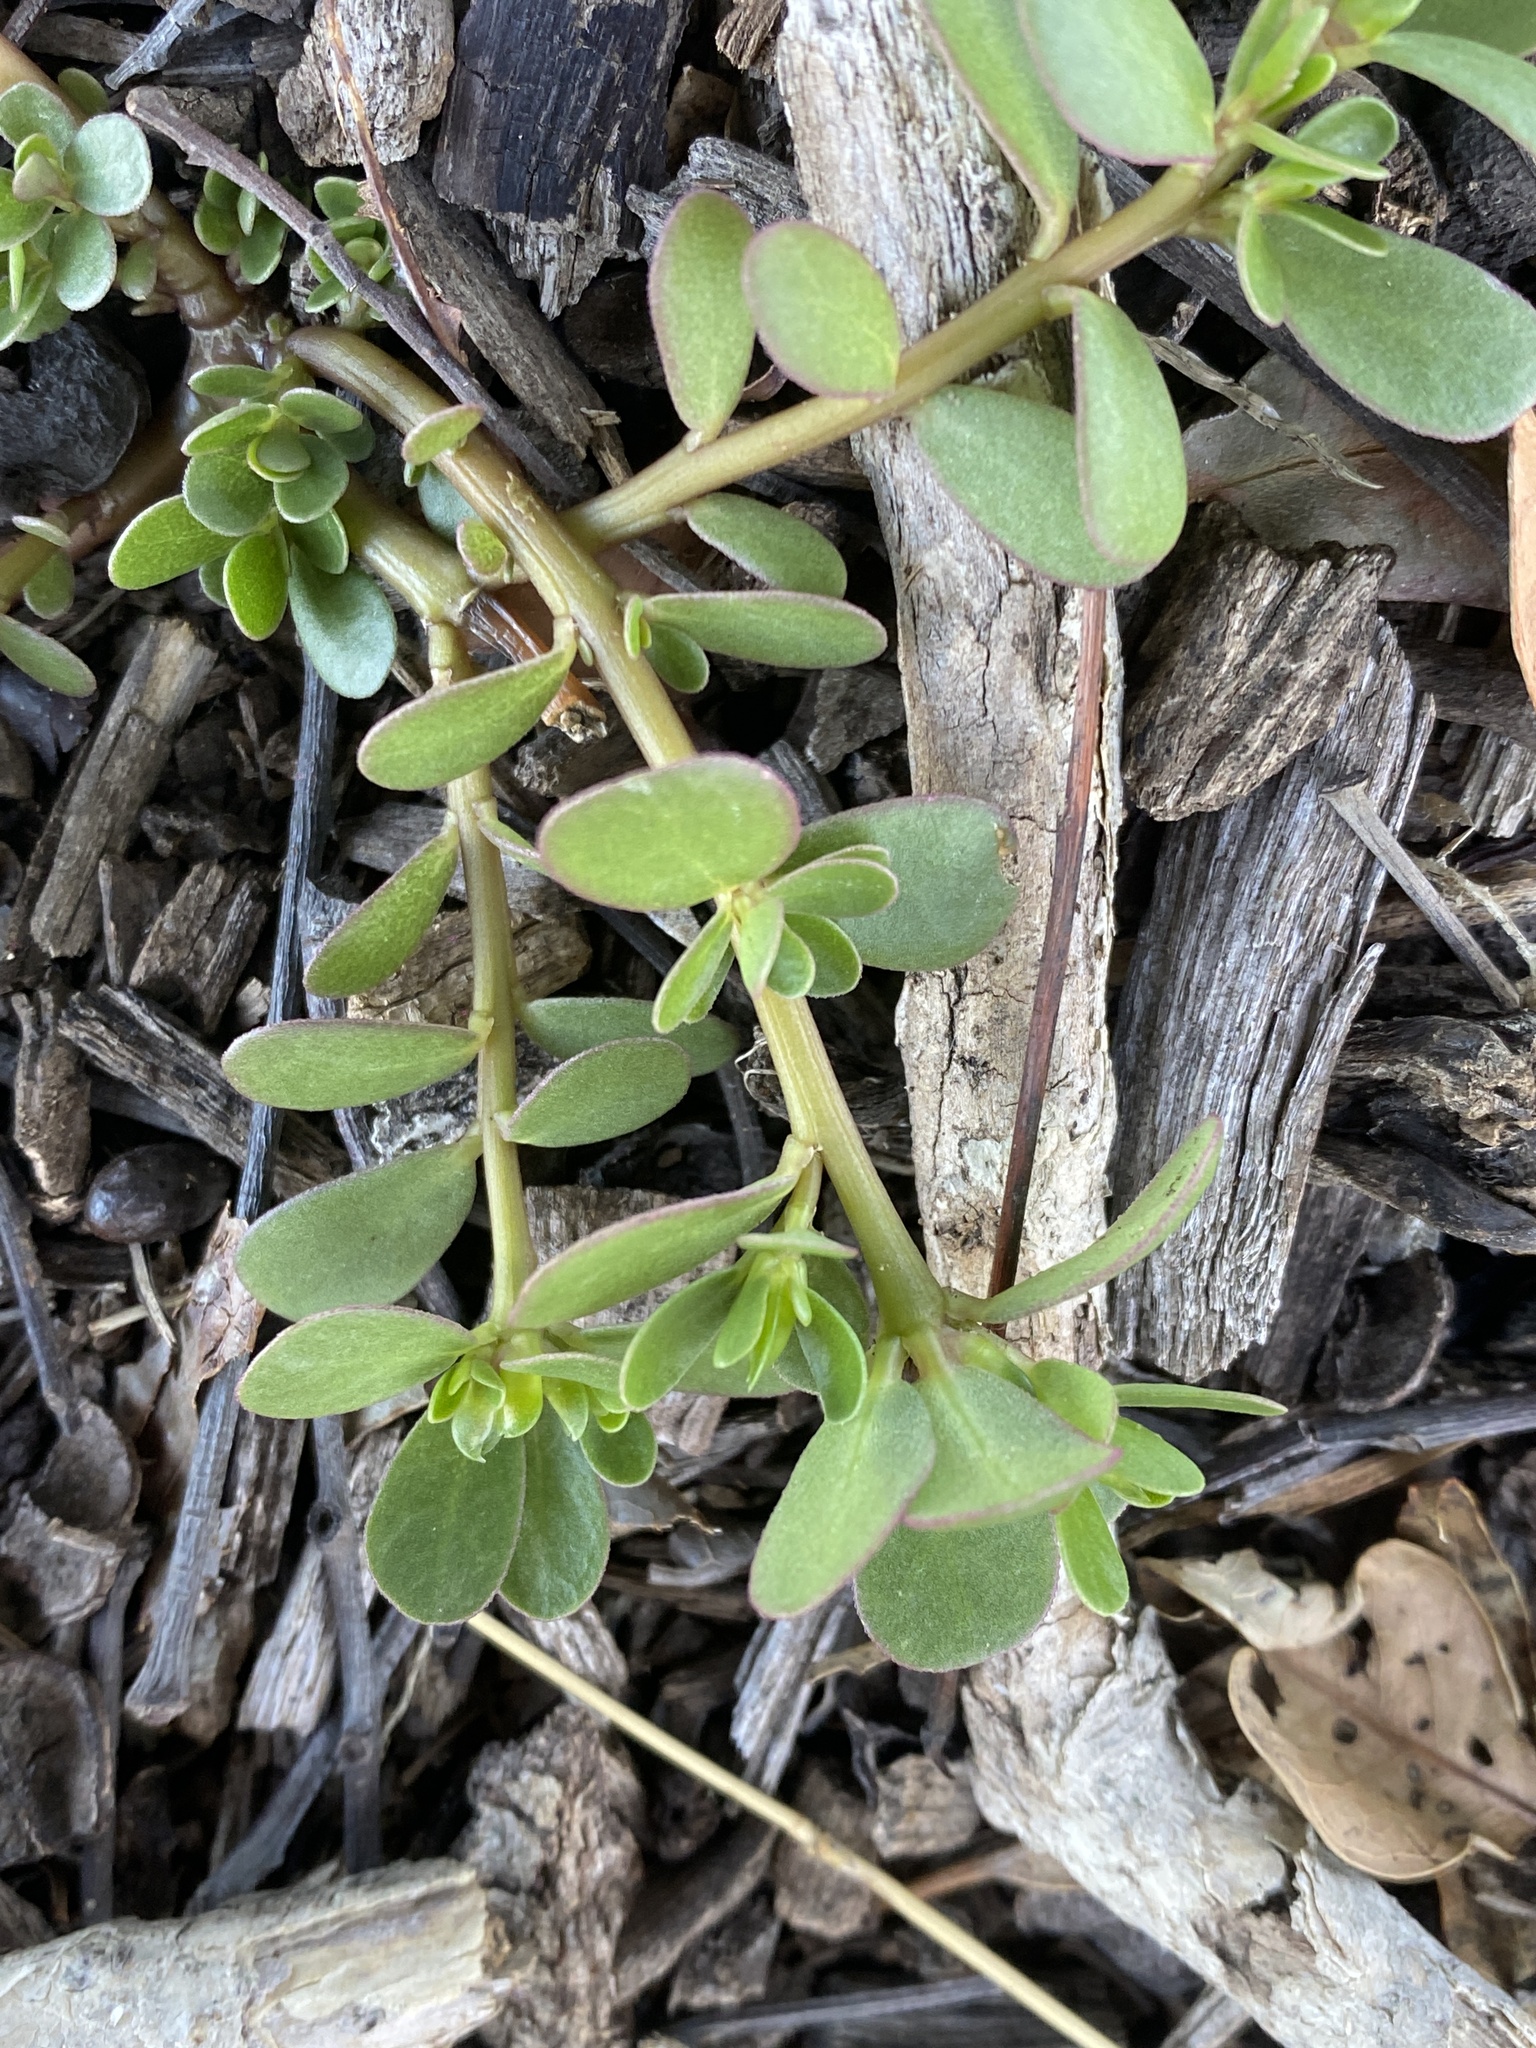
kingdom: Plantae
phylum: Tracheophyta
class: Magnoliopsida
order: Caryophyllales
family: Portulacaceae
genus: Portulaca
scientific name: Portulaca oleracea
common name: Common purslane
